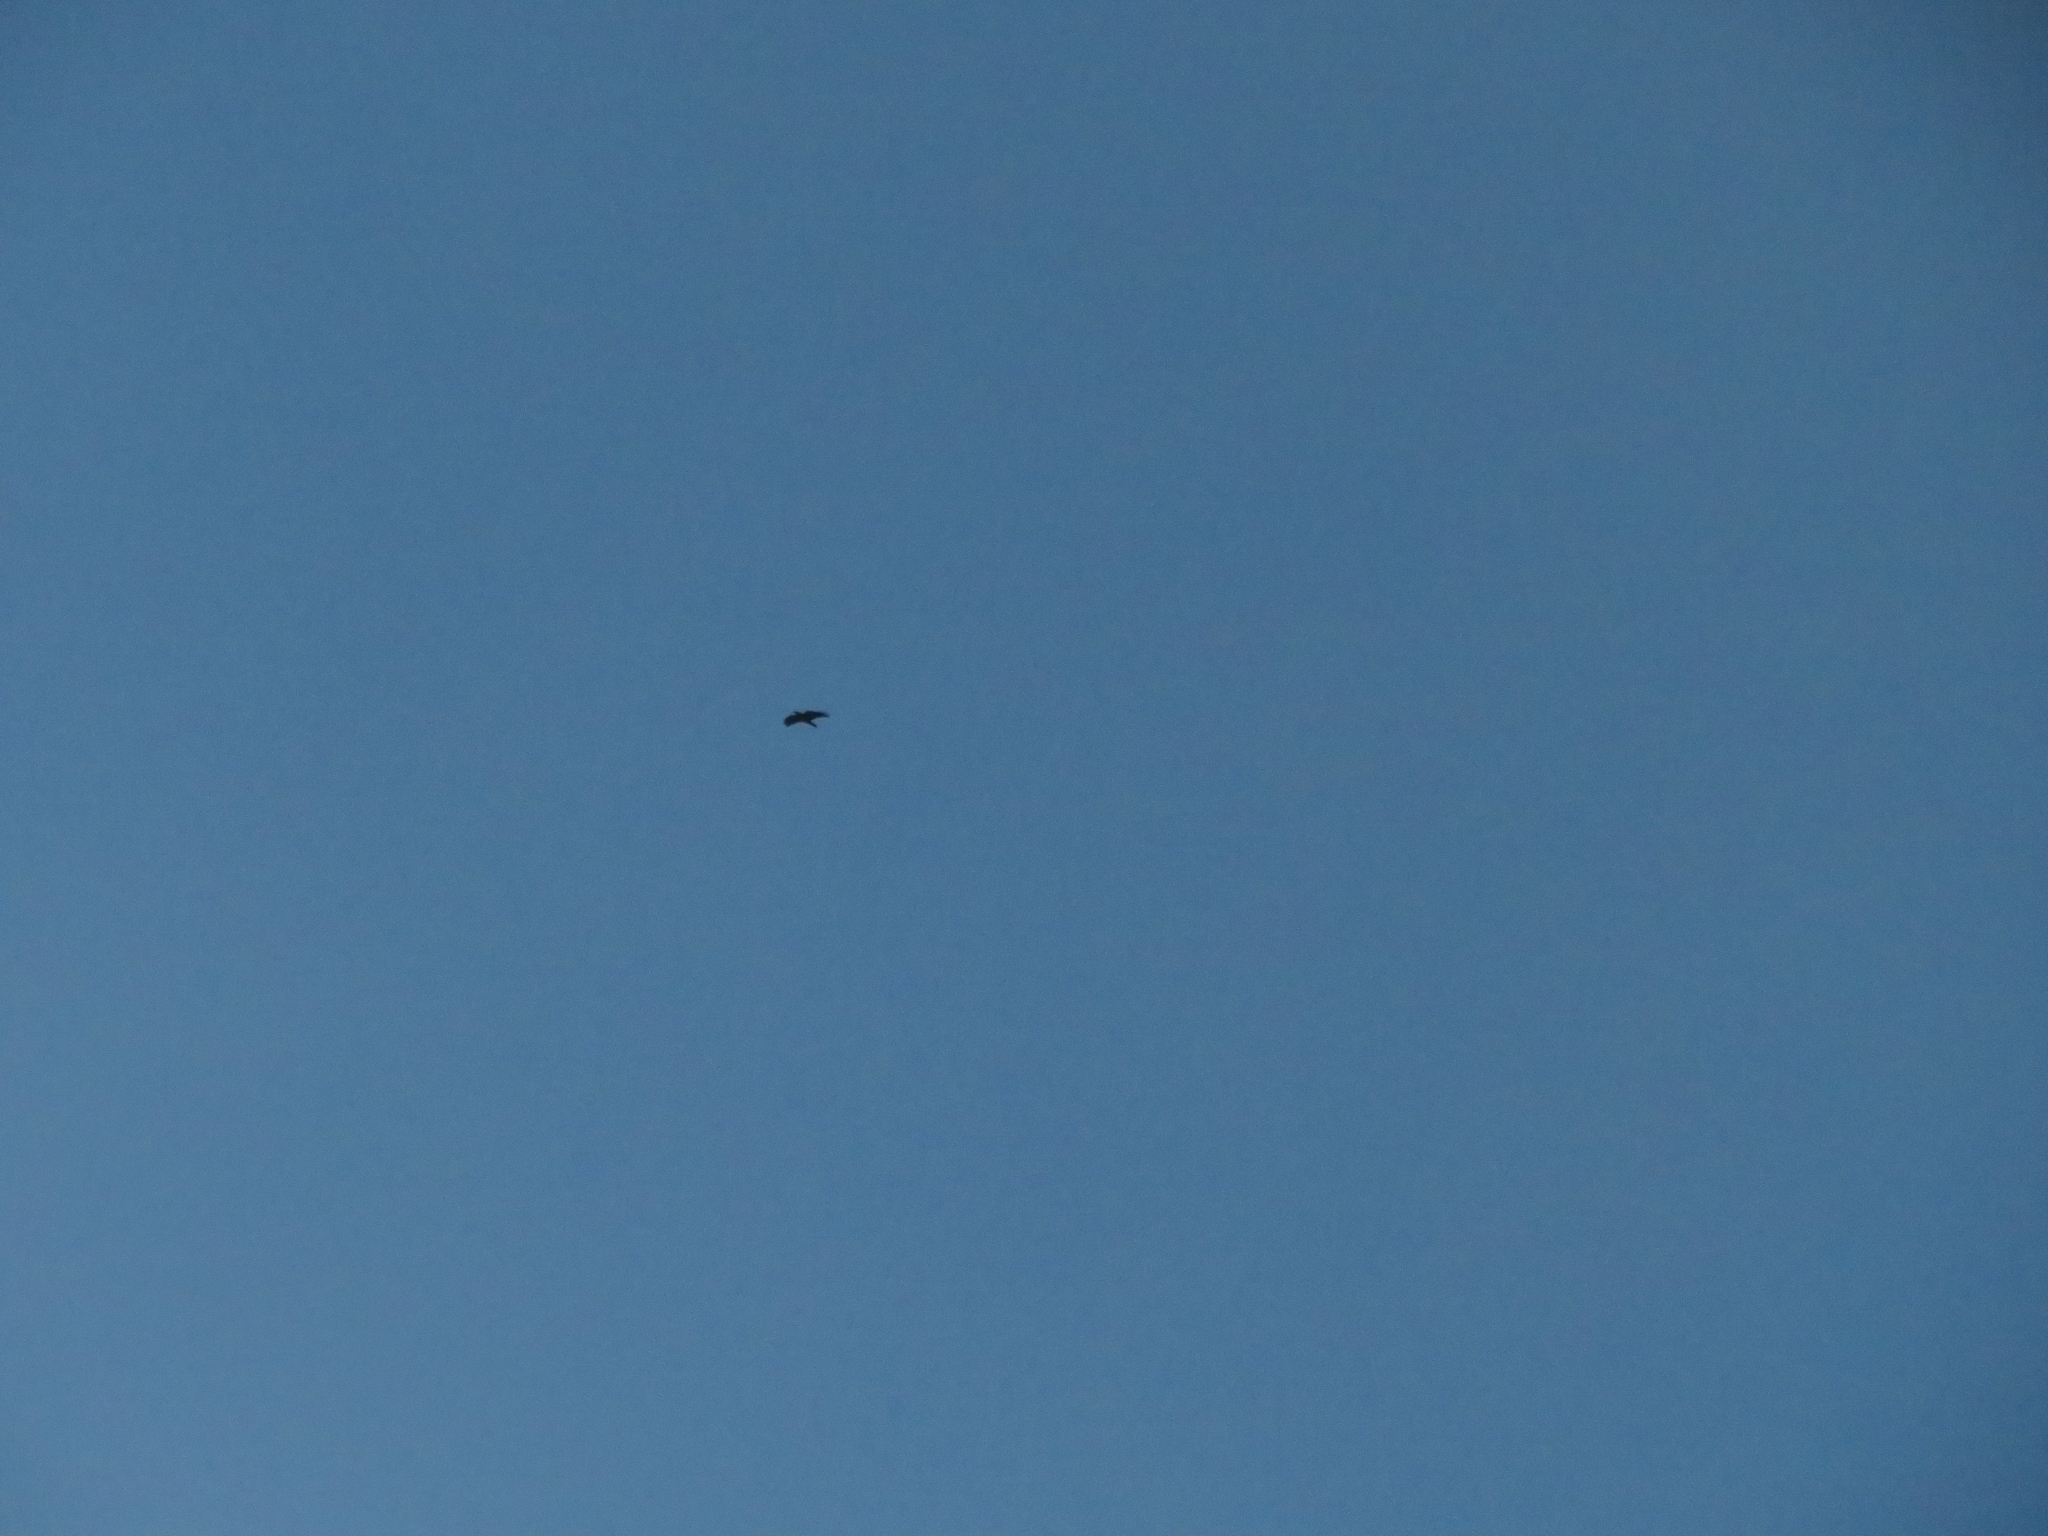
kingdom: Animalia
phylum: Chordata
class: Aves
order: Passeriformes
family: Corvidae
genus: Corvus
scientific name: Corvus corax
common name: Common raven
